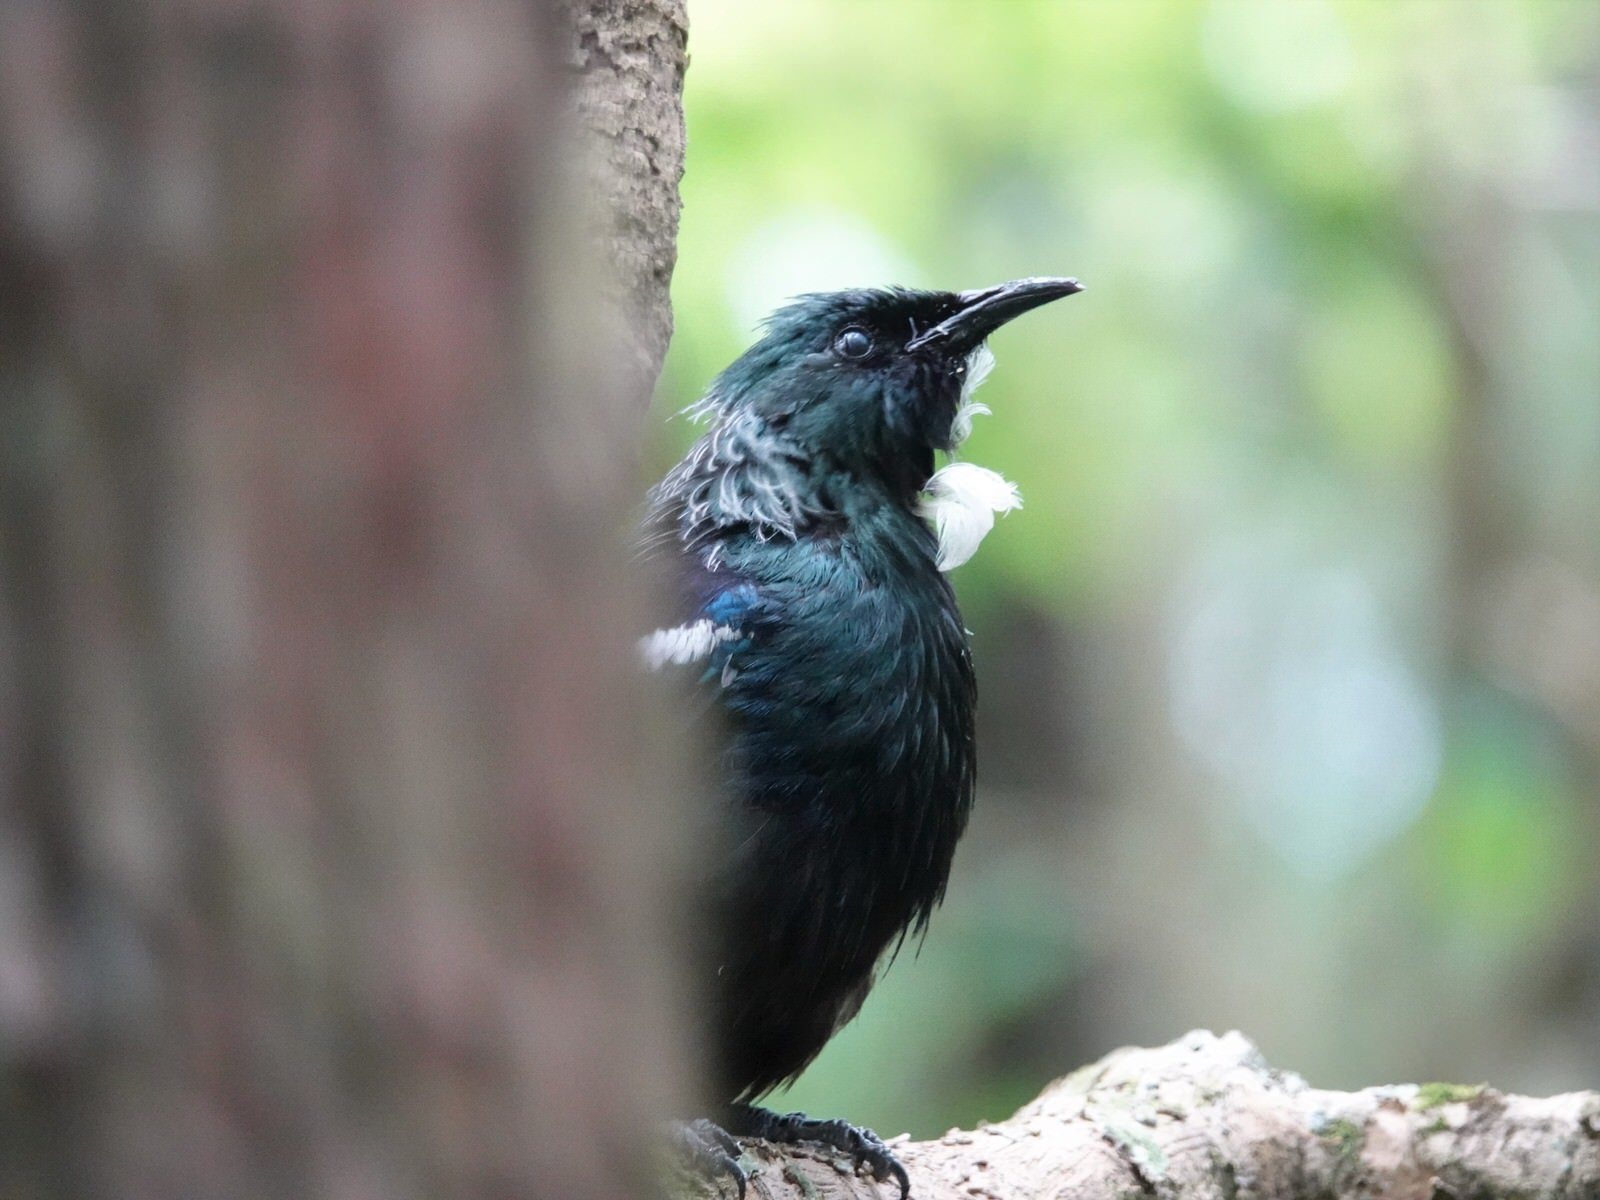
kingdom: Animalia
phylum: Chordata
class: Aves
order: Passeriformes
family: Meliphagidae
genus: Prosthemadera
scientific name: Prosthemadera novaeseelandiae
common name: Tui
